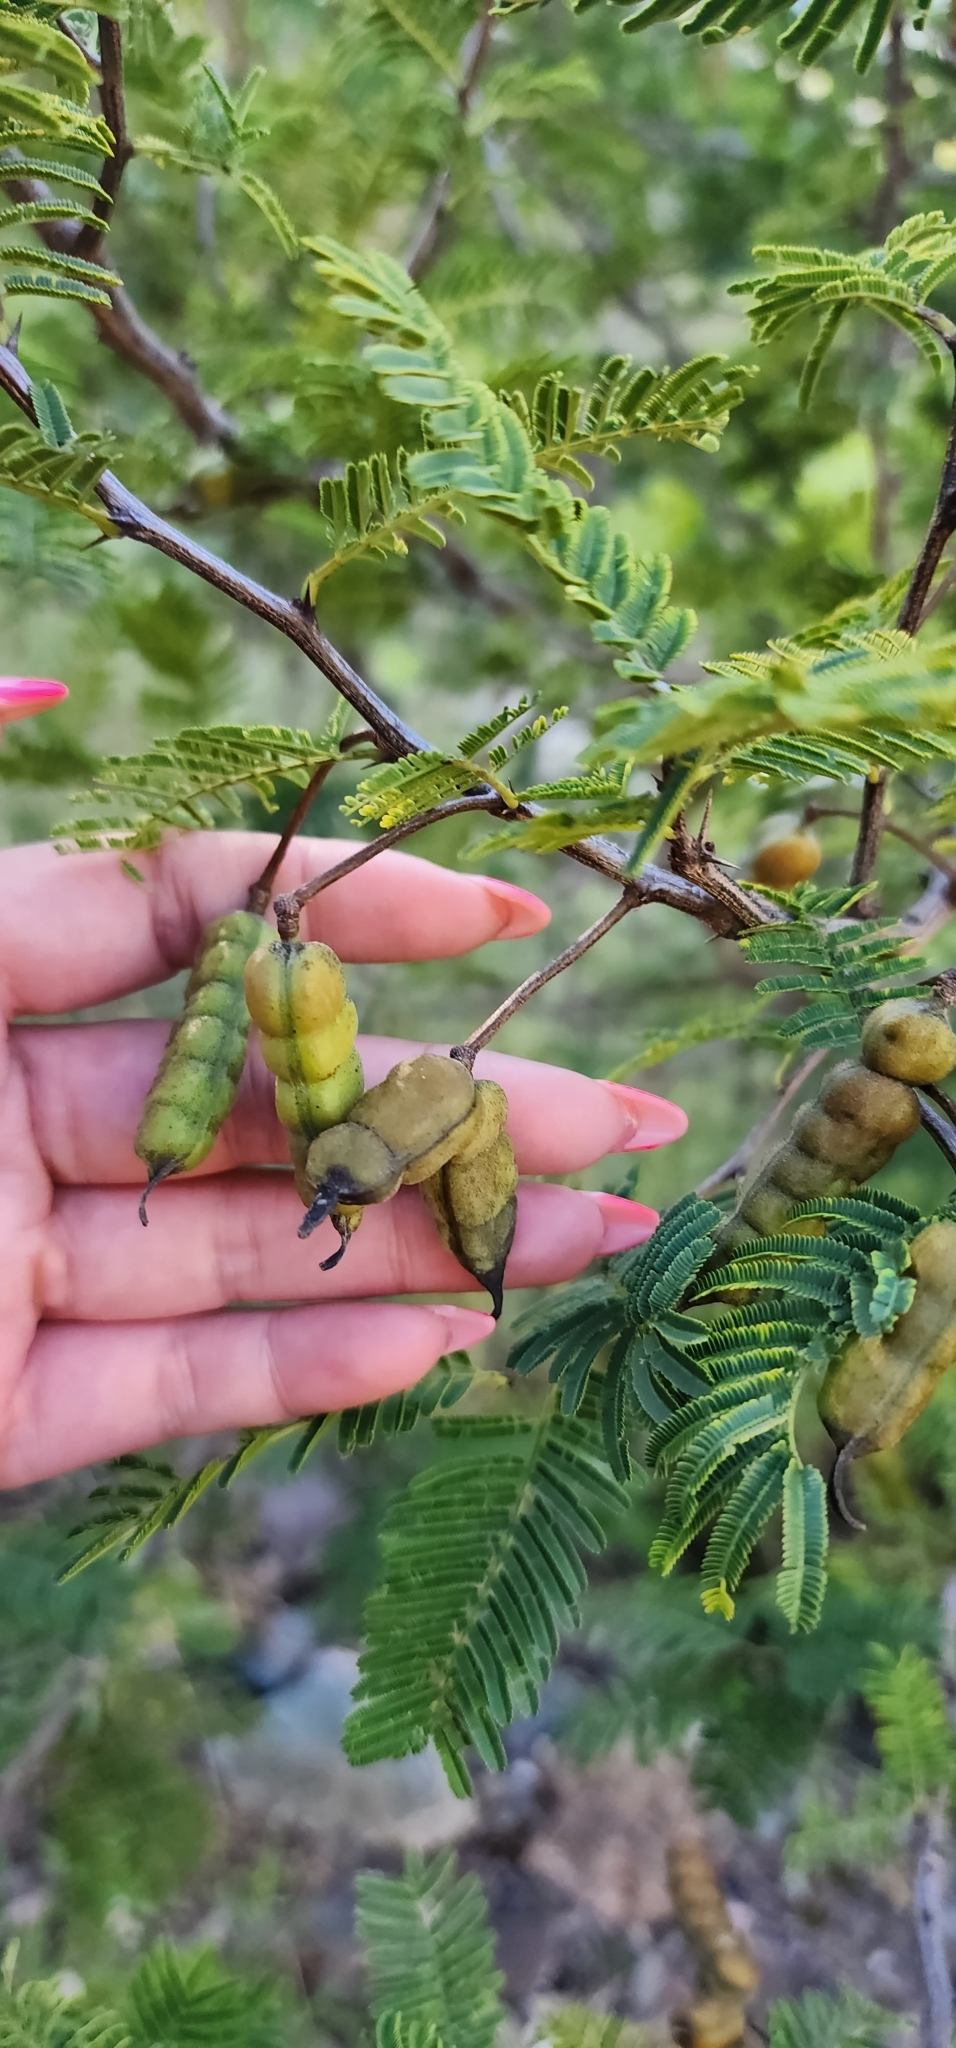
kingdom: Plantae
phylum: Tracheophyta
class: Magnoliopsida
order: Fabales
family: Fabaceae
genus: Vachellia
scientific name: Vachellia aroma
